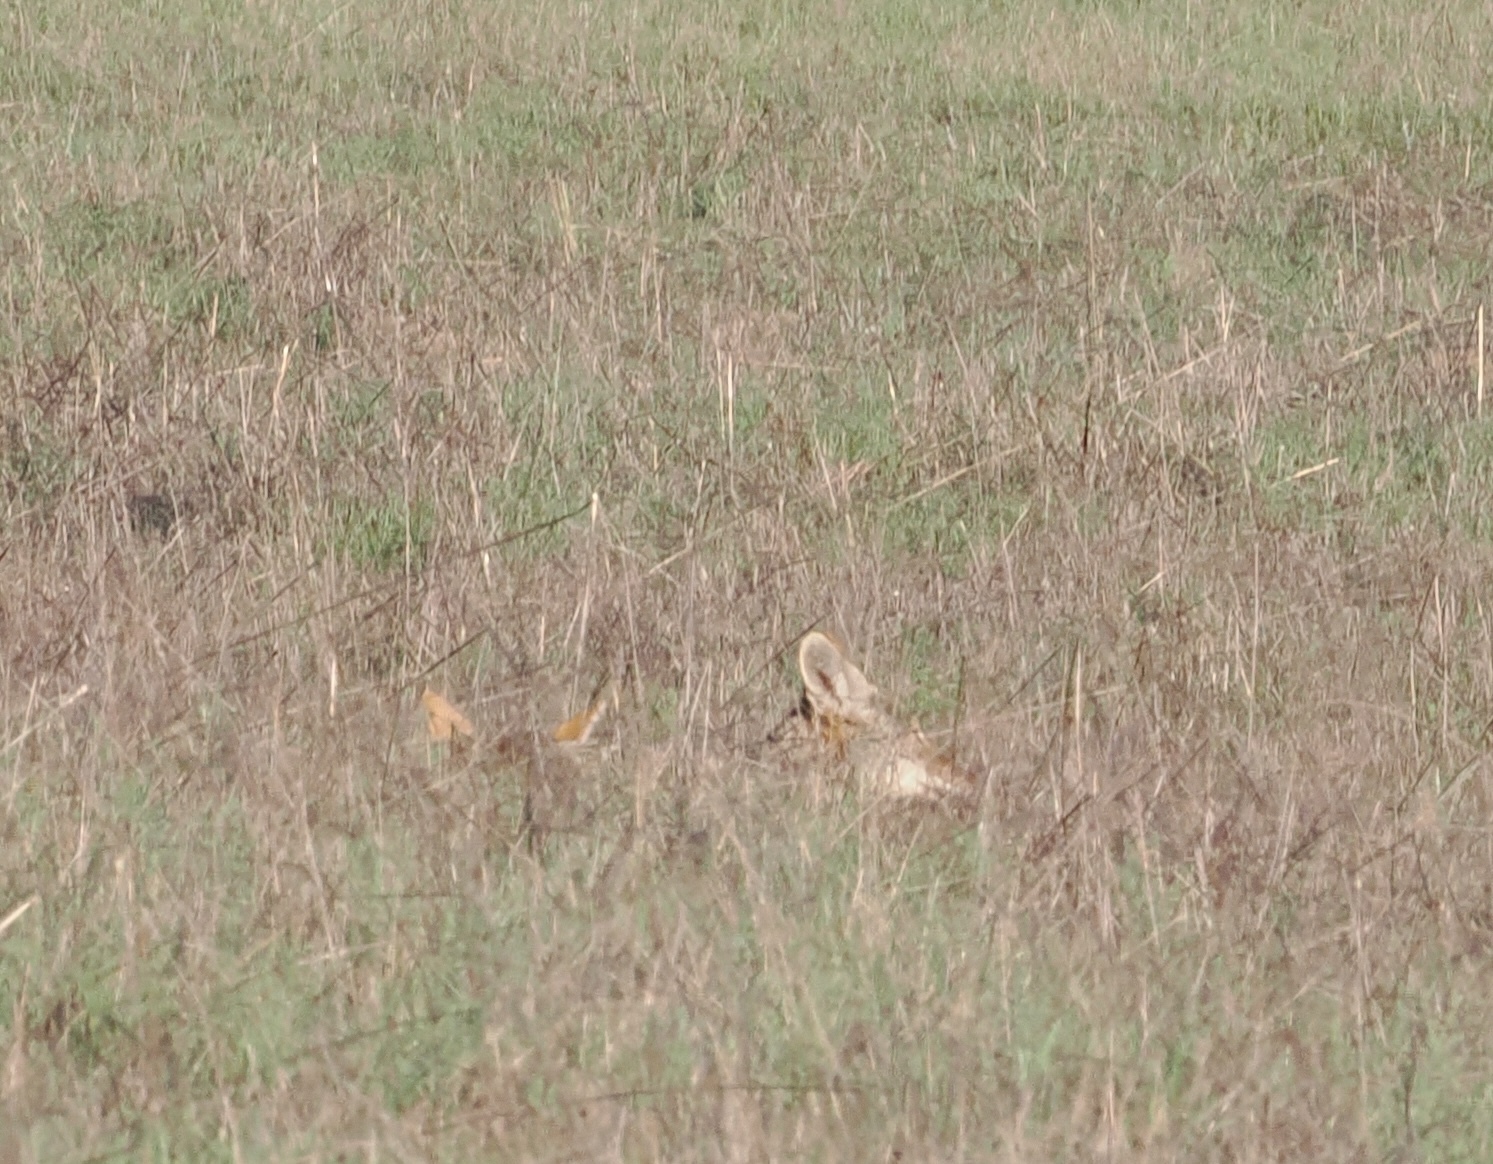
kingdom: Animalia
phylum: Chordata
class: Mammalia
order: Carnivora
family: Canidae
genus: Canis
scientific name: Canis latrans
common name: Coyote
